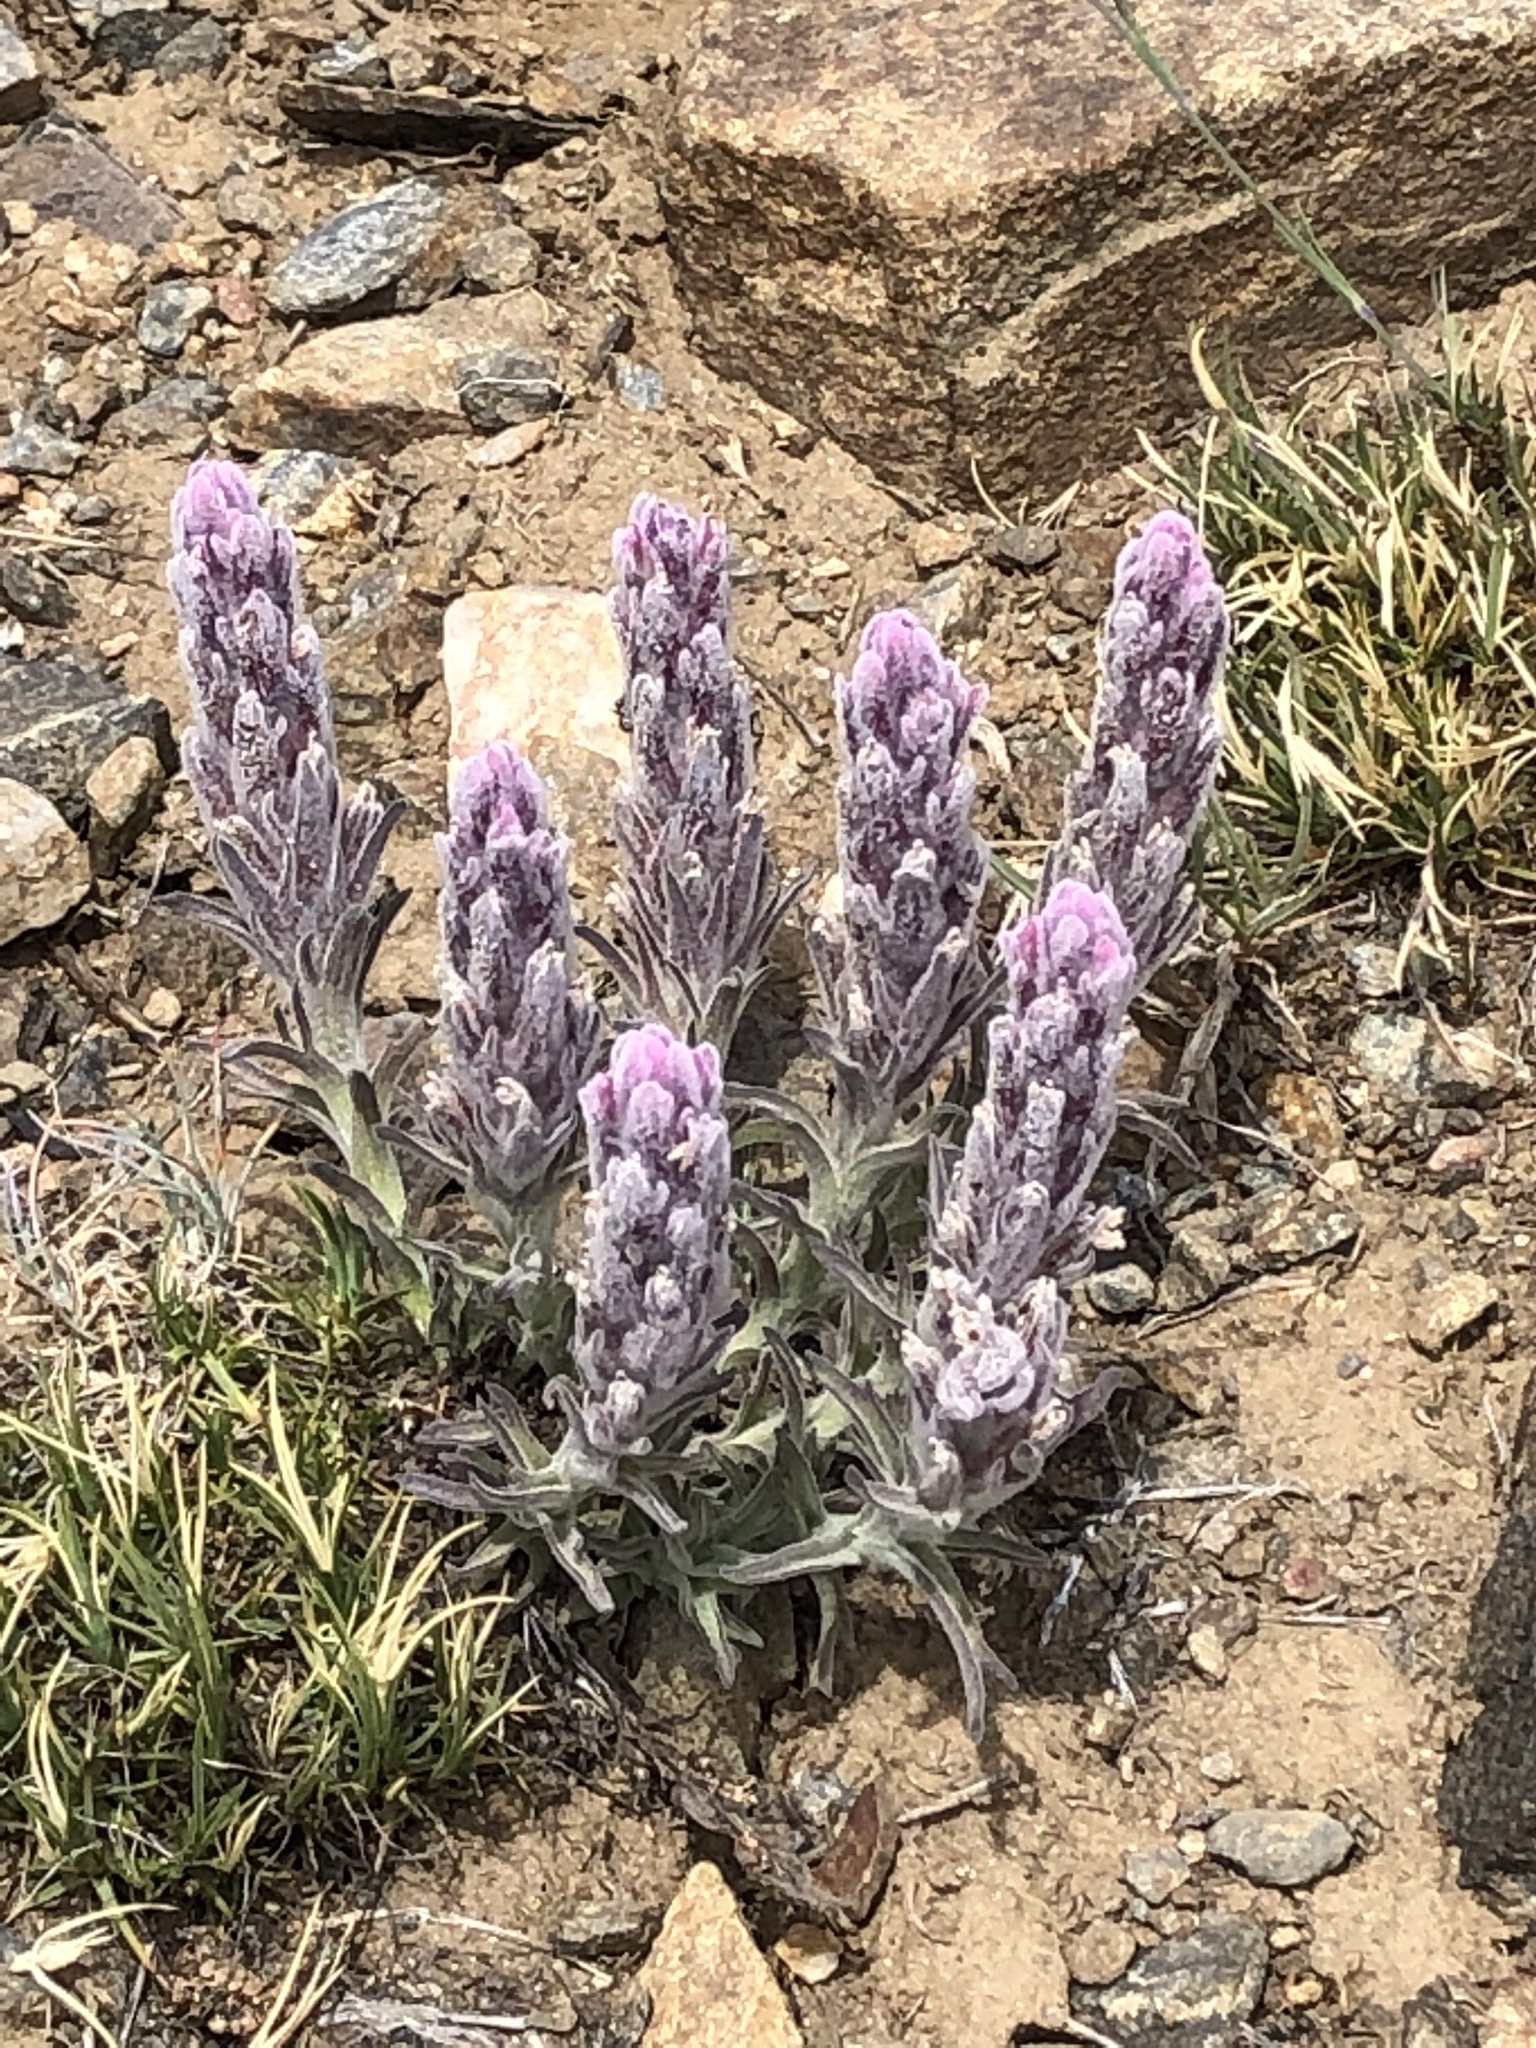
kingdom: Plantae
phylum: Tracheophyta
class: Magnoliopsida
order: Lamiales
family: Orobanchaceae
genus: Castilleja
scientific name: Castilleja schizotricha
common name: Split-hair indian paintbrush
